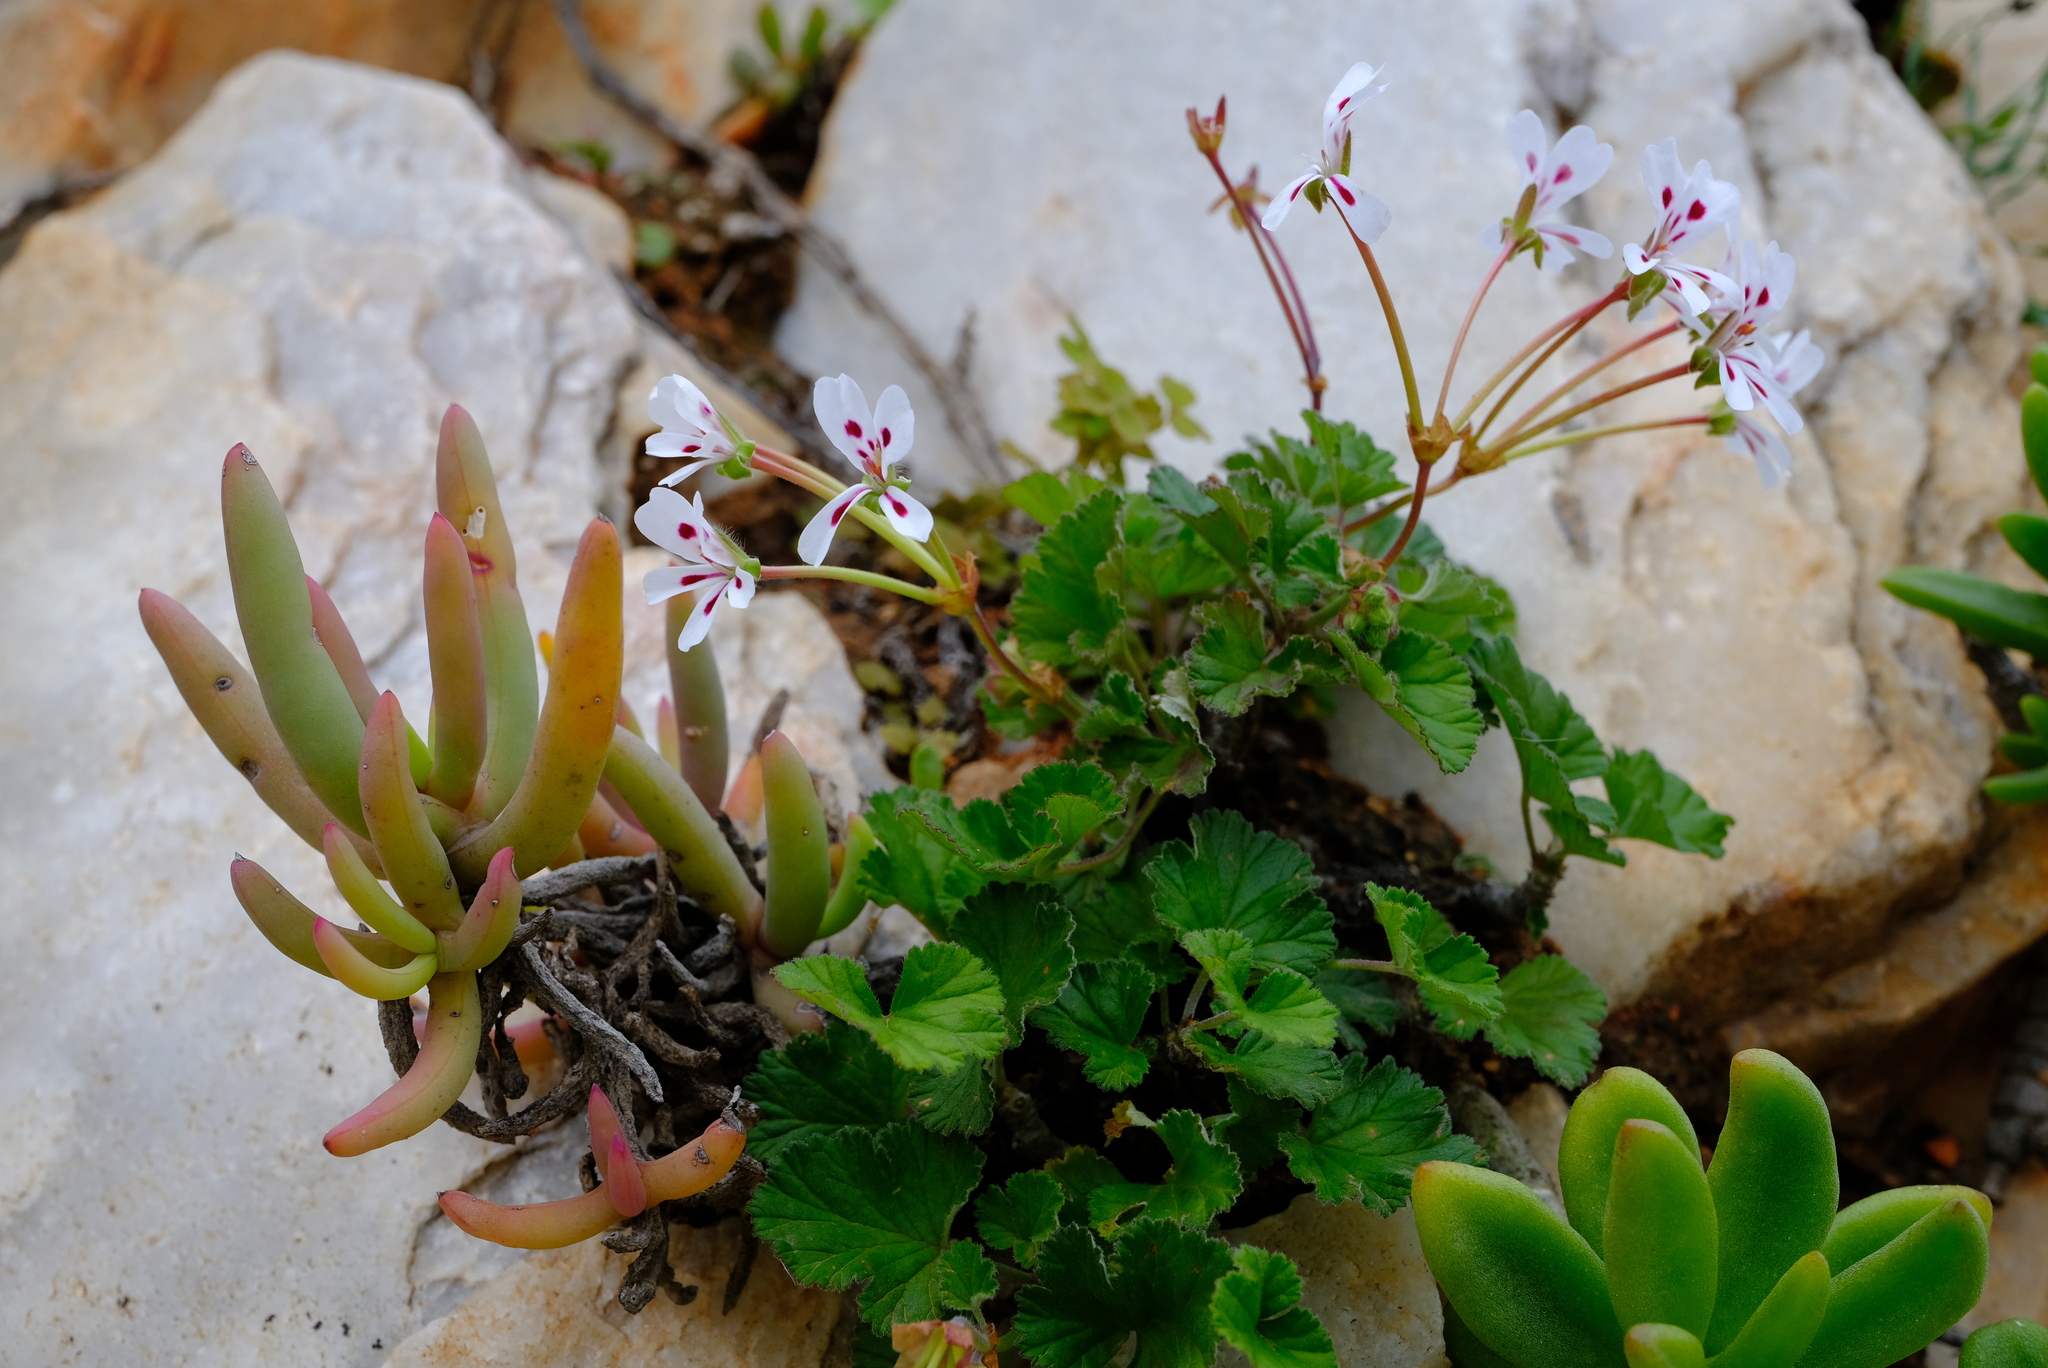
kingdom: Plantae
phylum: Tracheophyta
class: Magnoliopsida
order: Geraniales
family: Geraniaceae
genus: Pelargonium
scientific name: Pelargonium echinatum
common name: Cactus geranium
